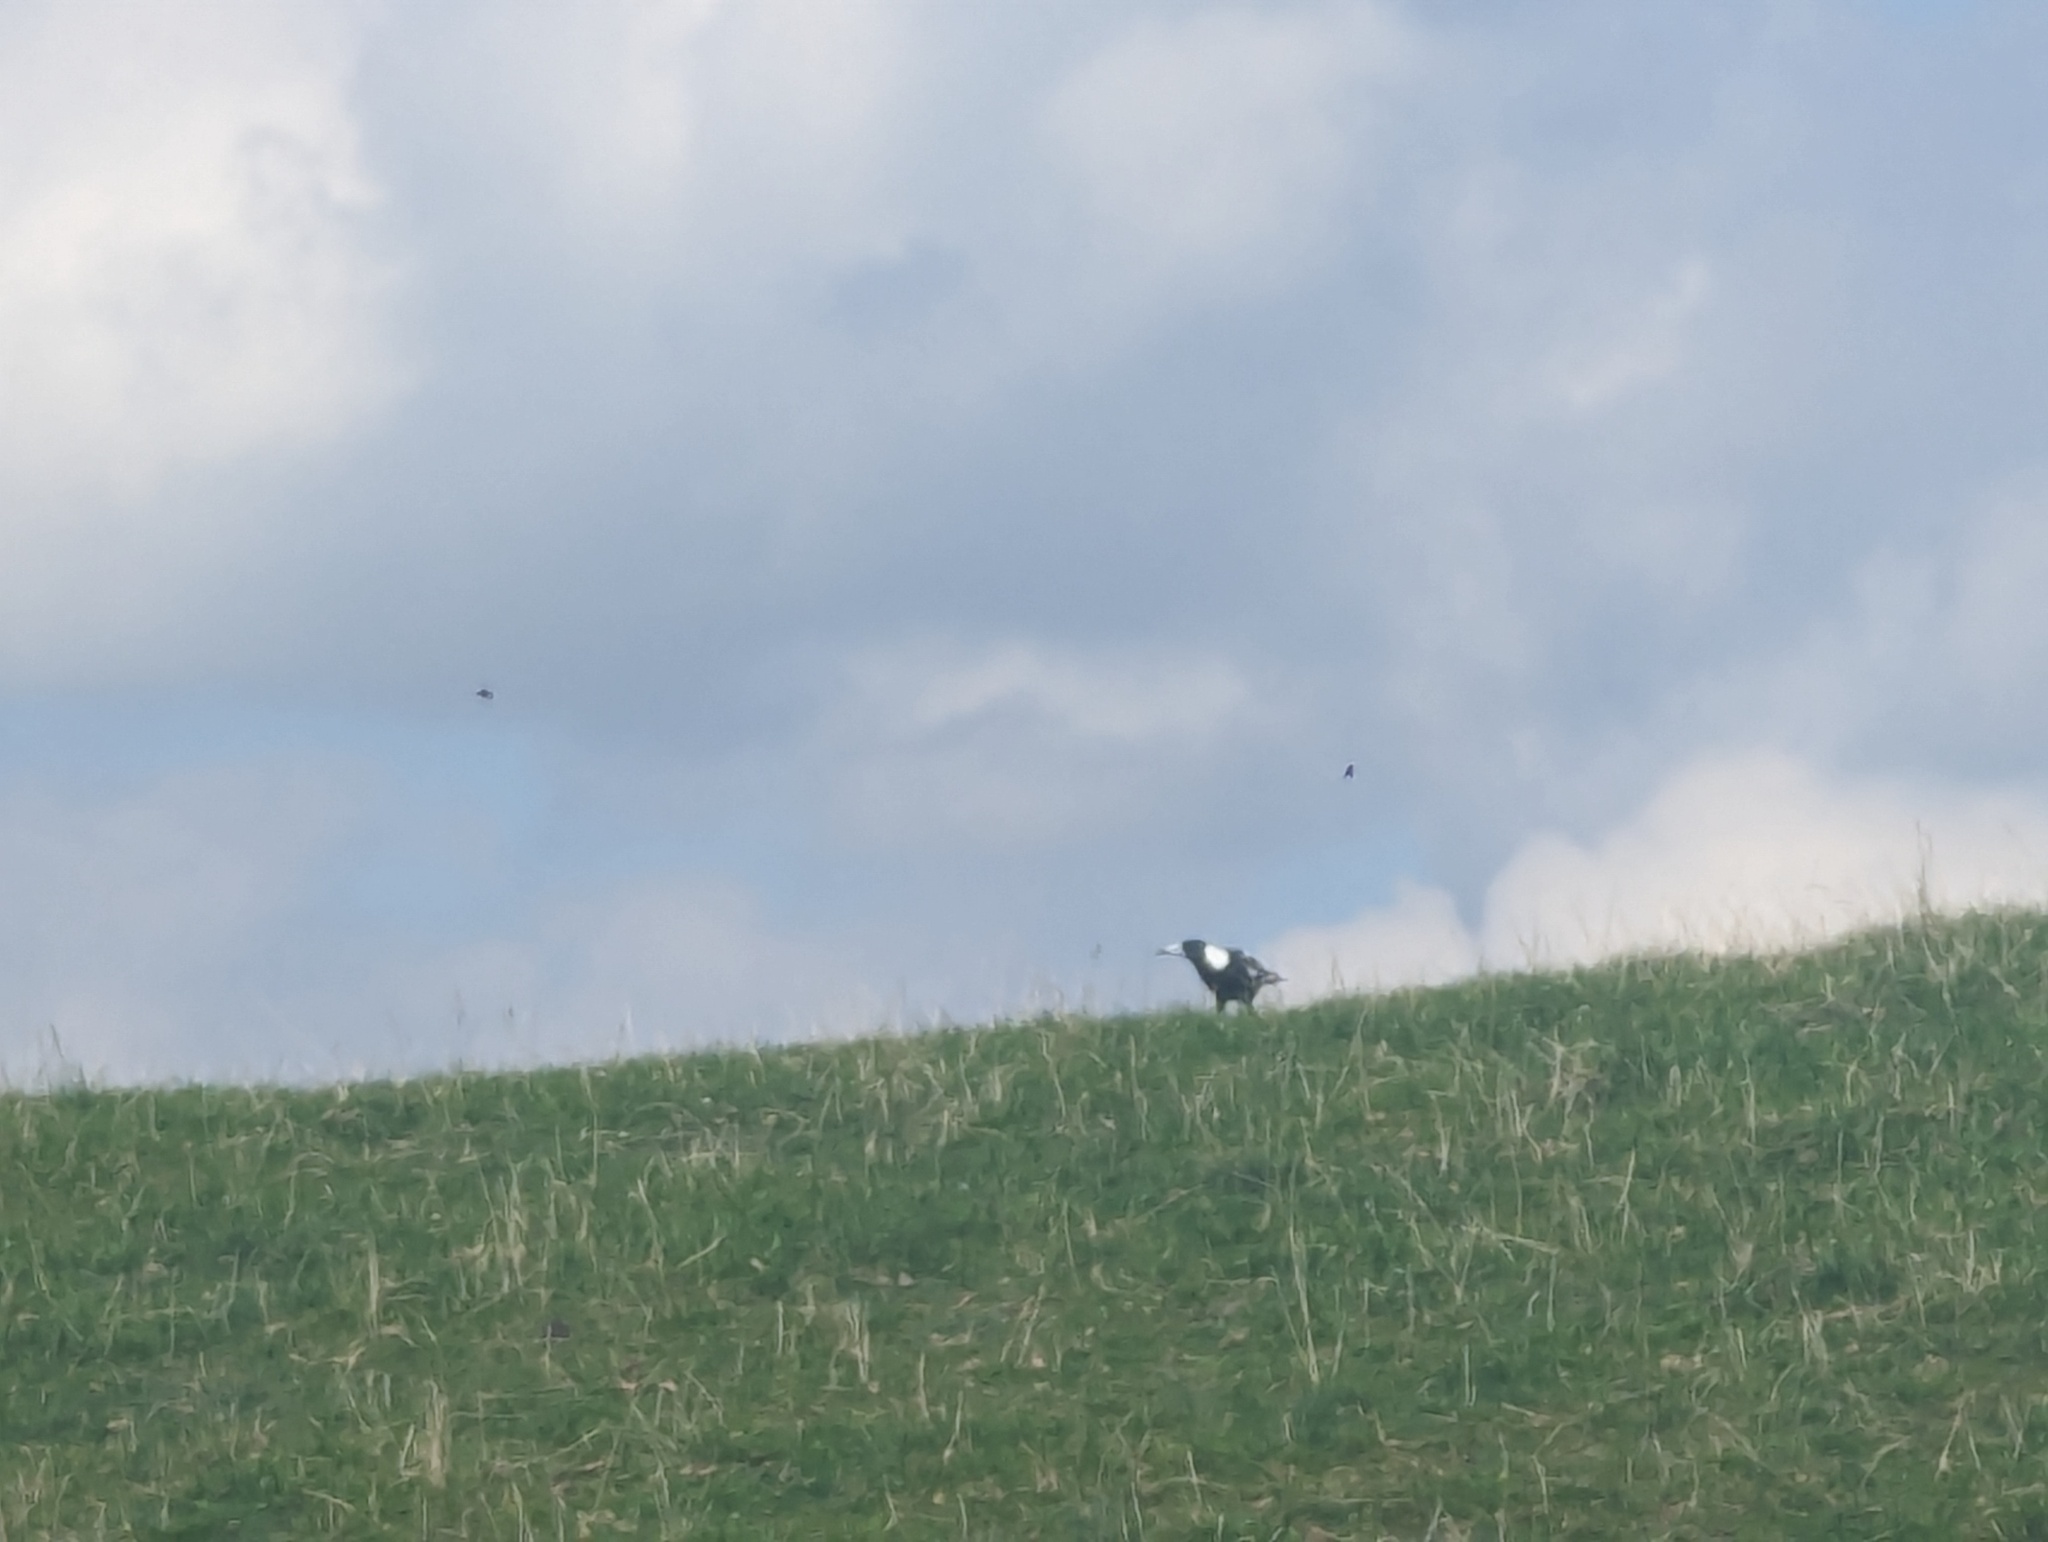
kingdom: Animalia
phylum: Chordata
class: Aves
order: Passeriformes
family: Cracticidae
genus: Gymnorhina
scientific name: Gymnorhina tibicen
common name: Australian magpie
